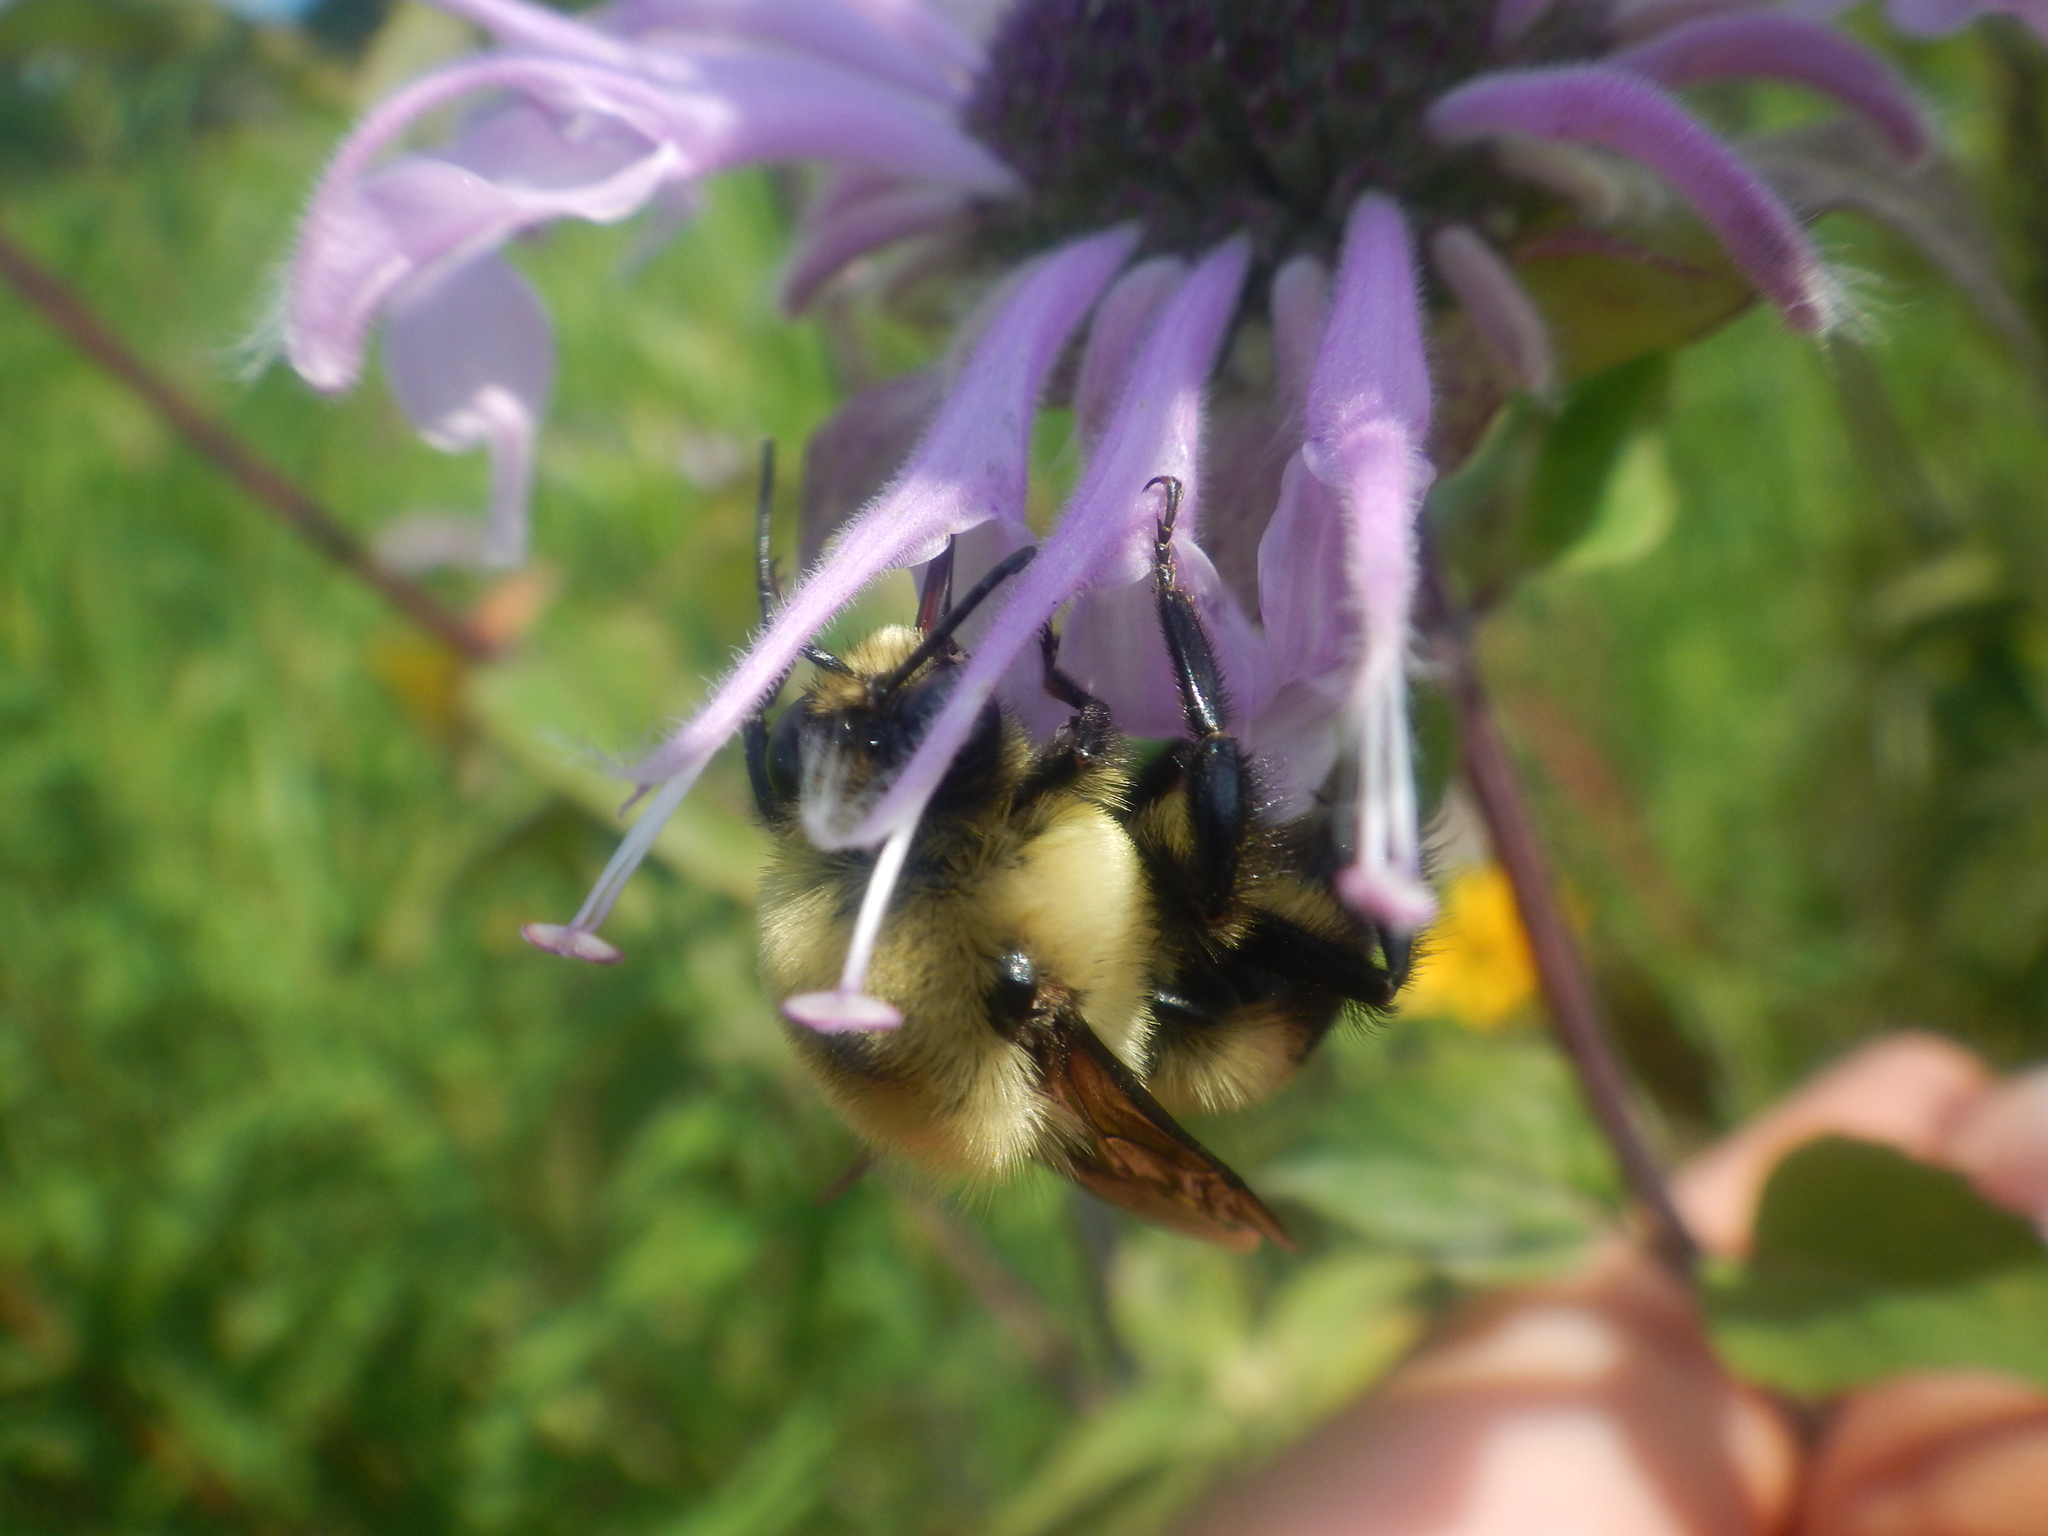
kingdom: Animalia
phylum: Arthropoda
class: Insecta
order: Hymenoptera
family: Apidae
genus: Bombus
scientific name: Bombus griseocollis
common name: Brown-belted bumble bee
